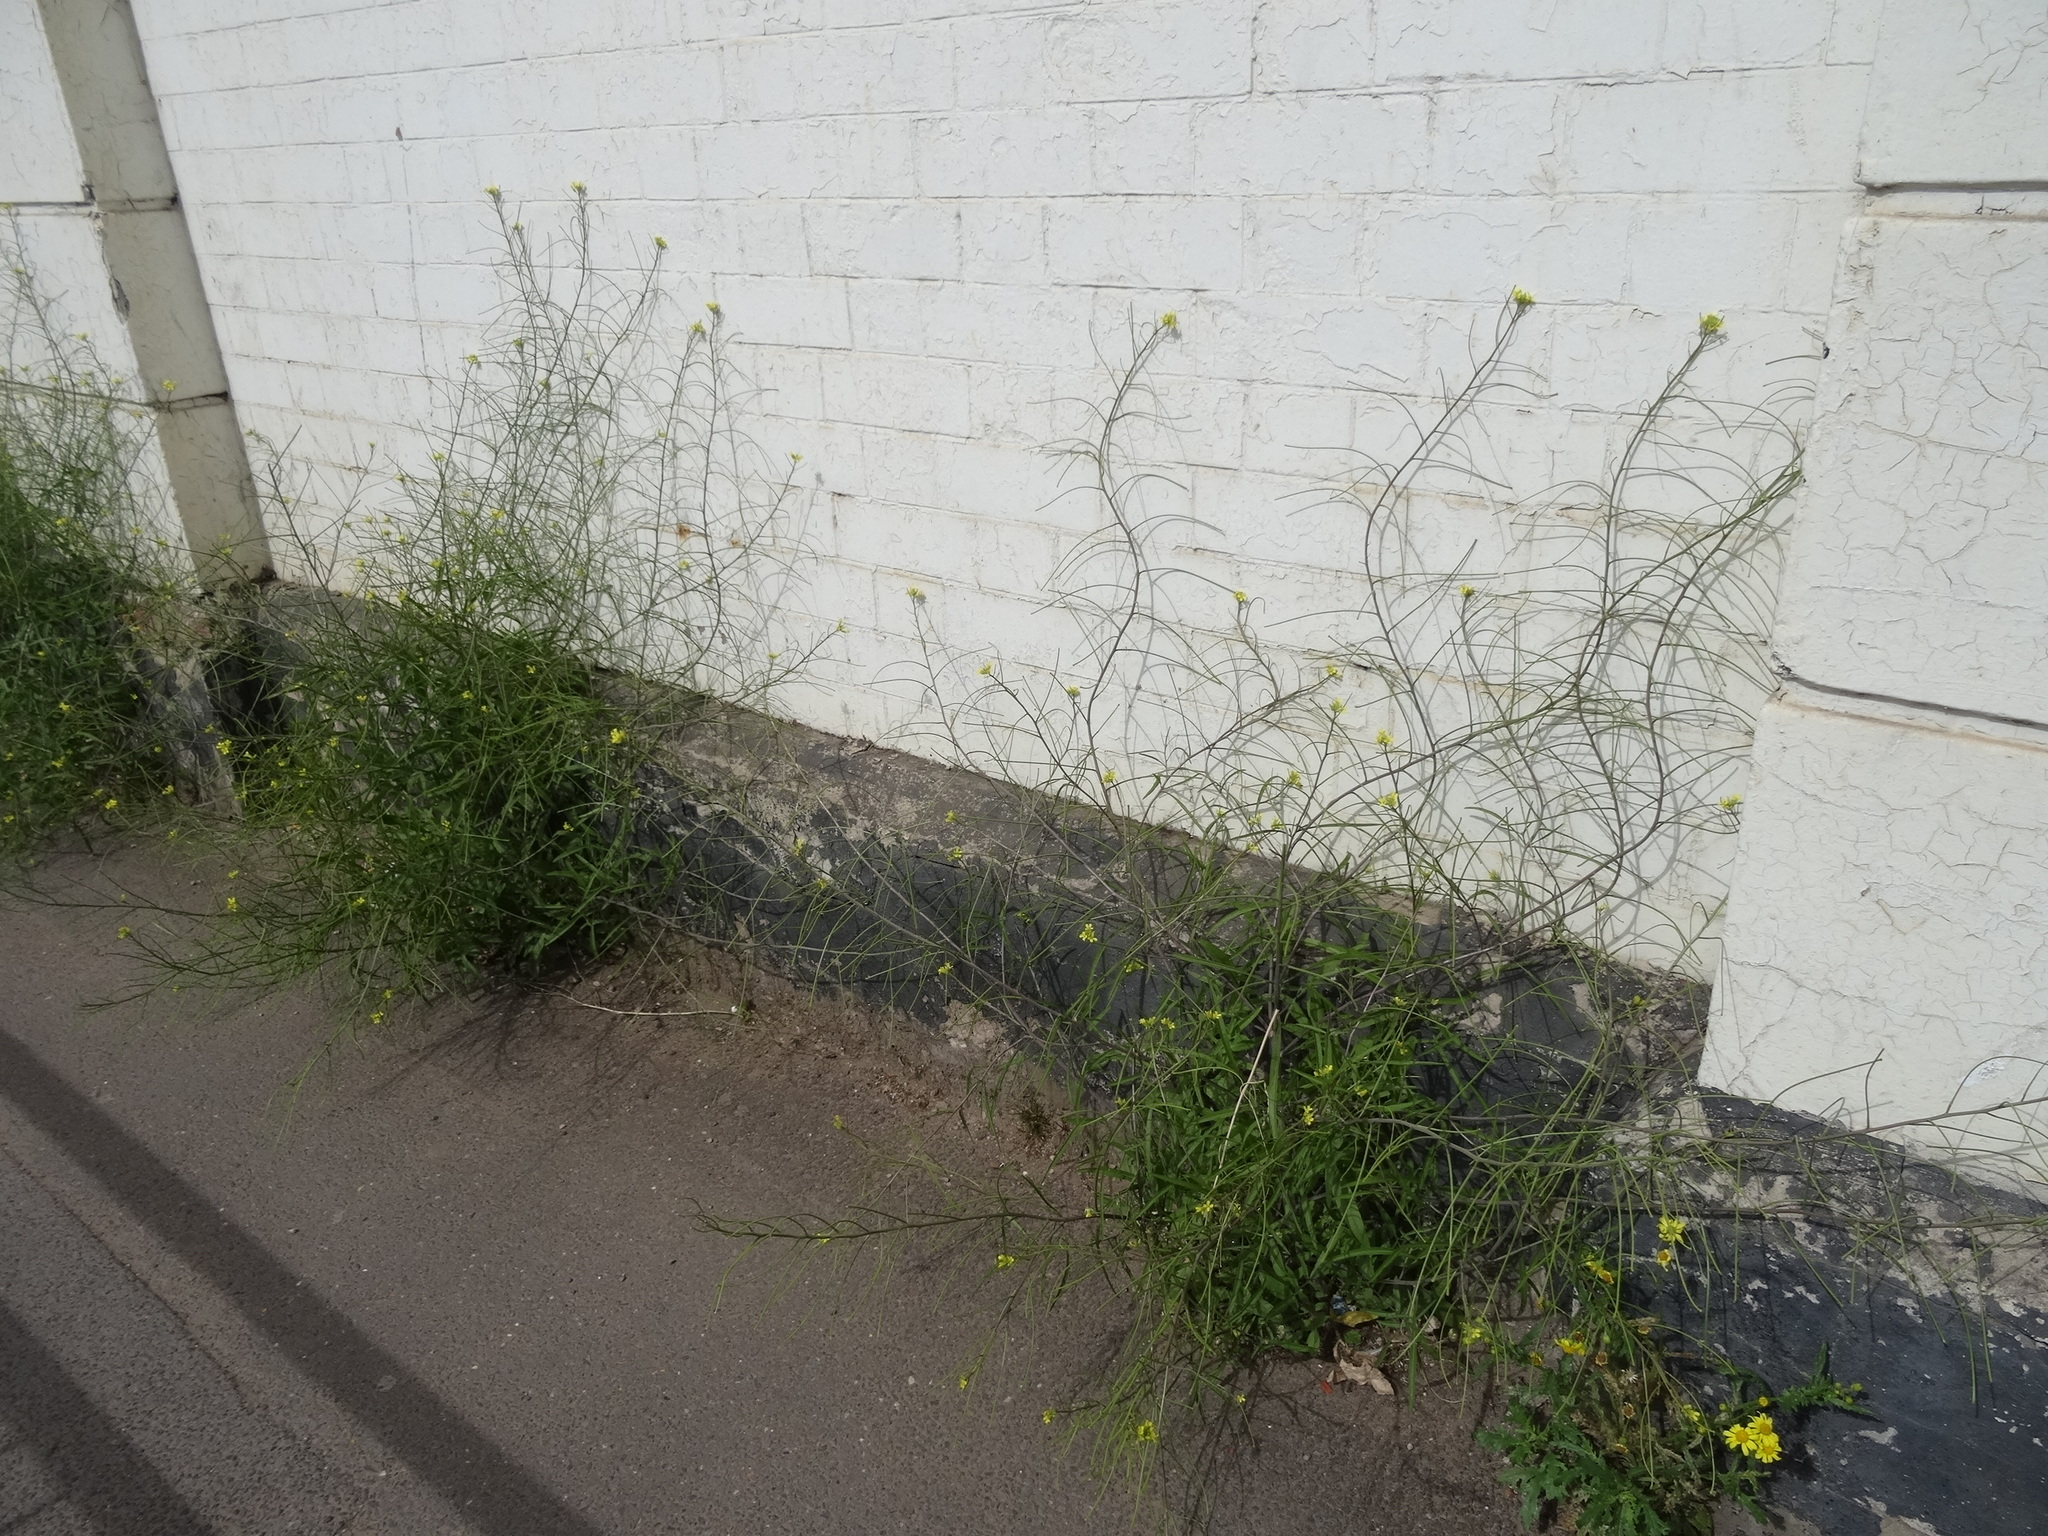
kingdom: Plantae
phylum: Tracheophyta
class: Magnoliopsida
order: Brassicales
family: Brassicaceae
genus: Sisymbrium
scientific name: Sisymbrium orientale
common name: Eastern rocket
